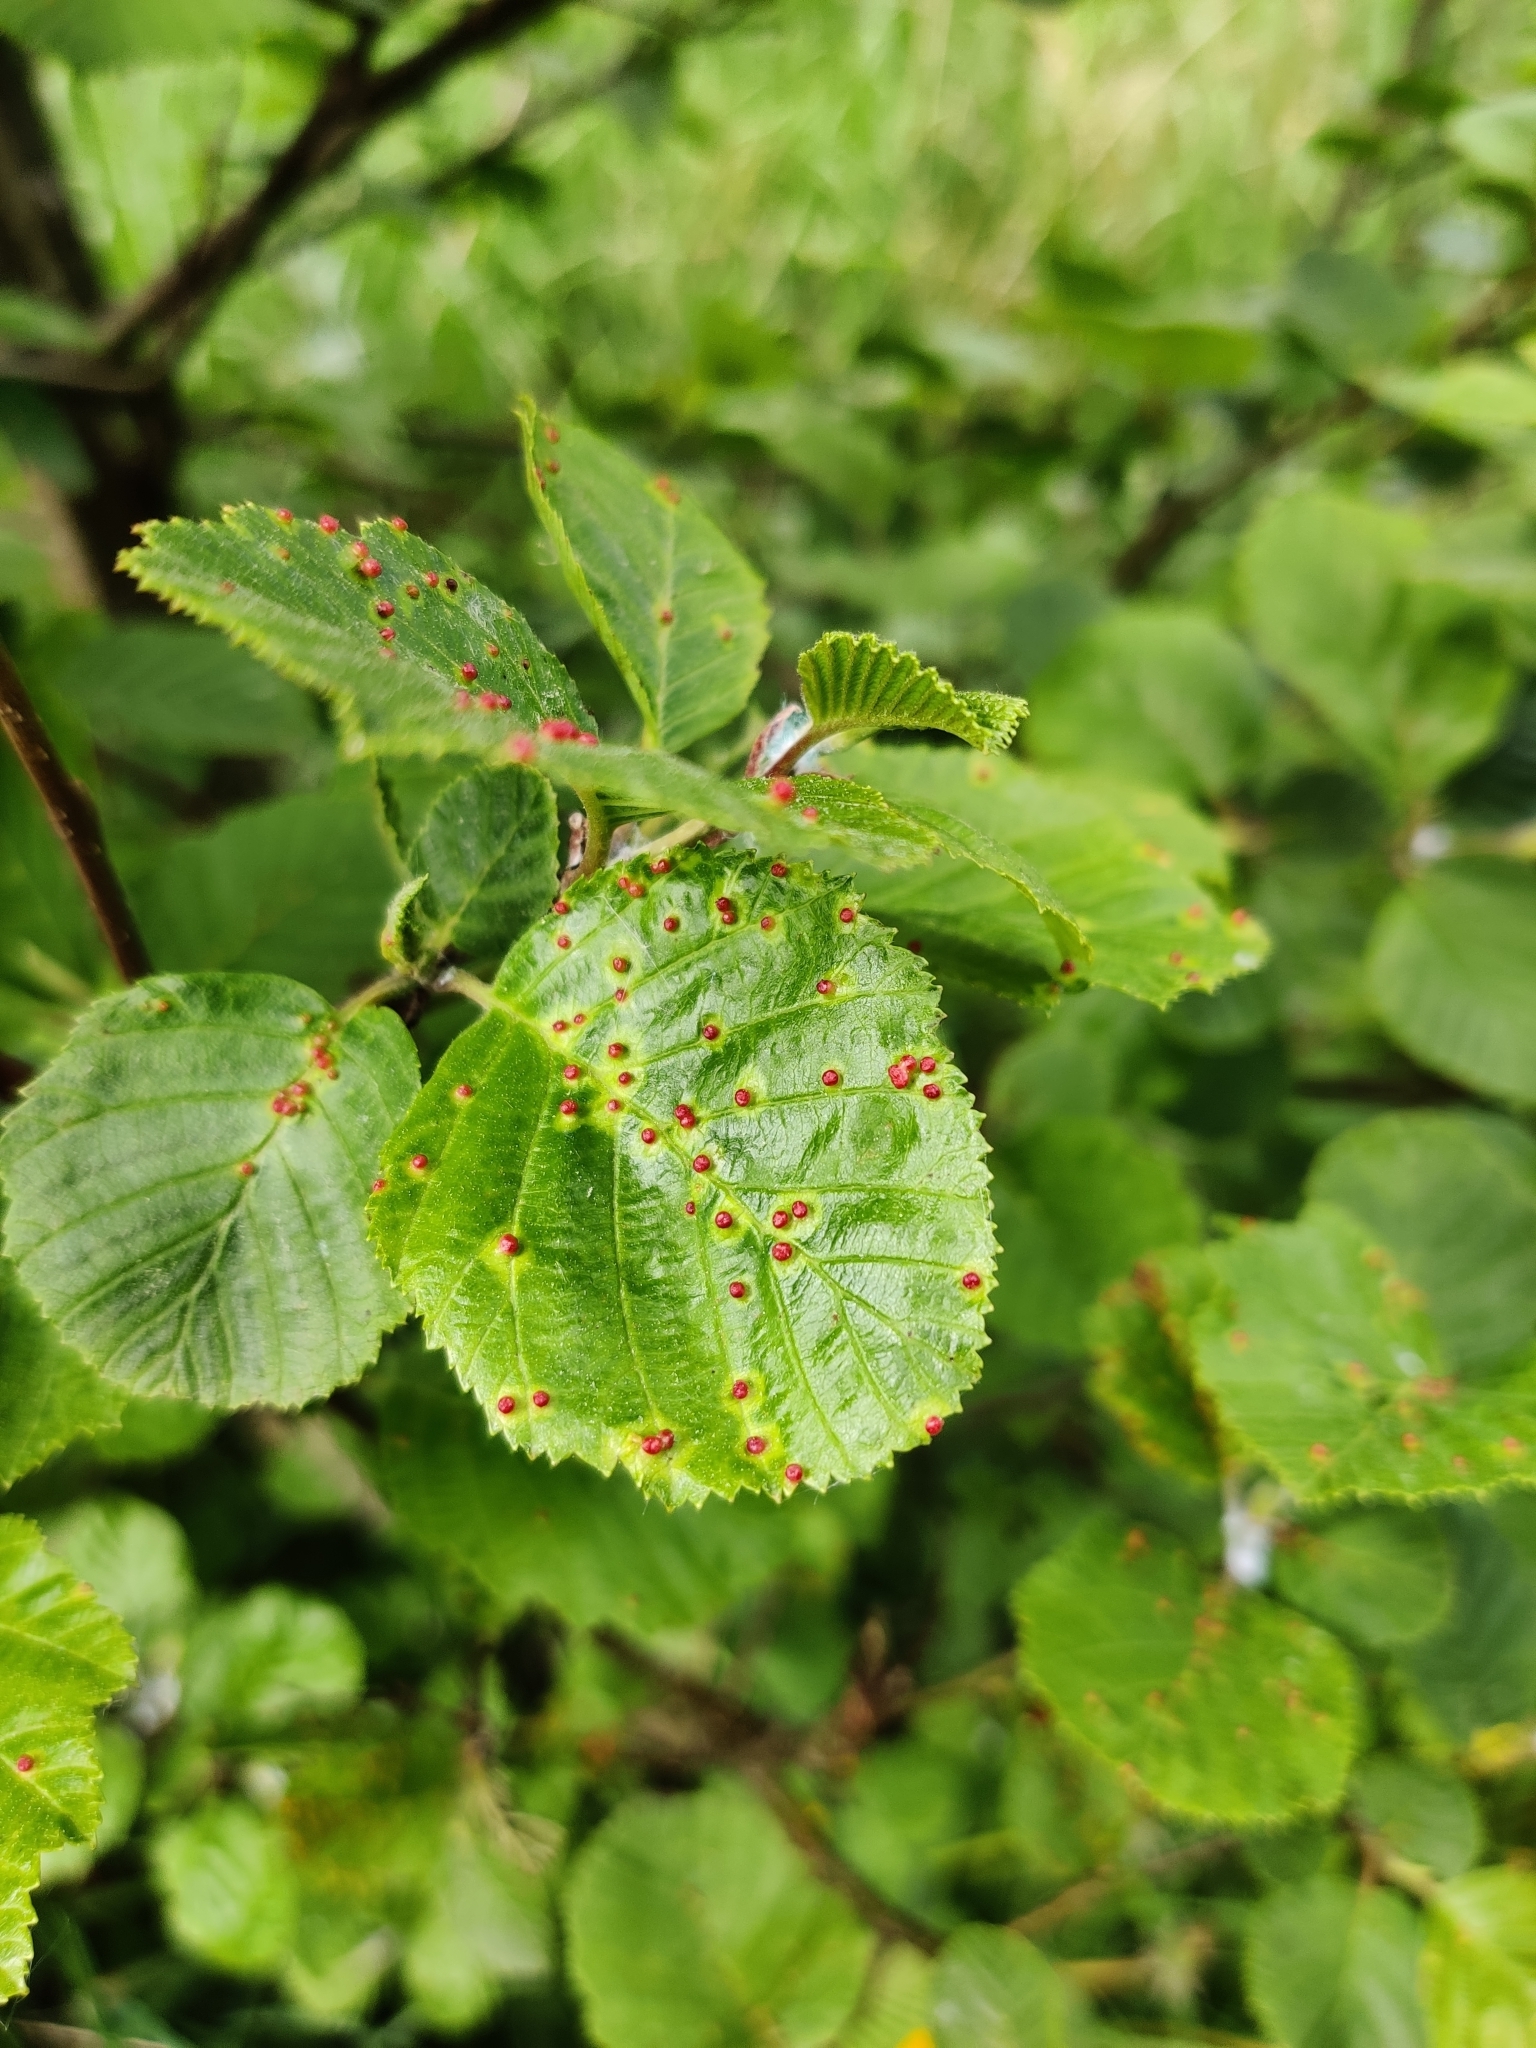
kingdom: Animalia
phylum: Arthropoda
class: Arachnida
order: Trombidiformes
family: Eriophyidae
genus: Eriophyes
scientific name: Eriophyes laevis
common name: Alder leaf gall mite
